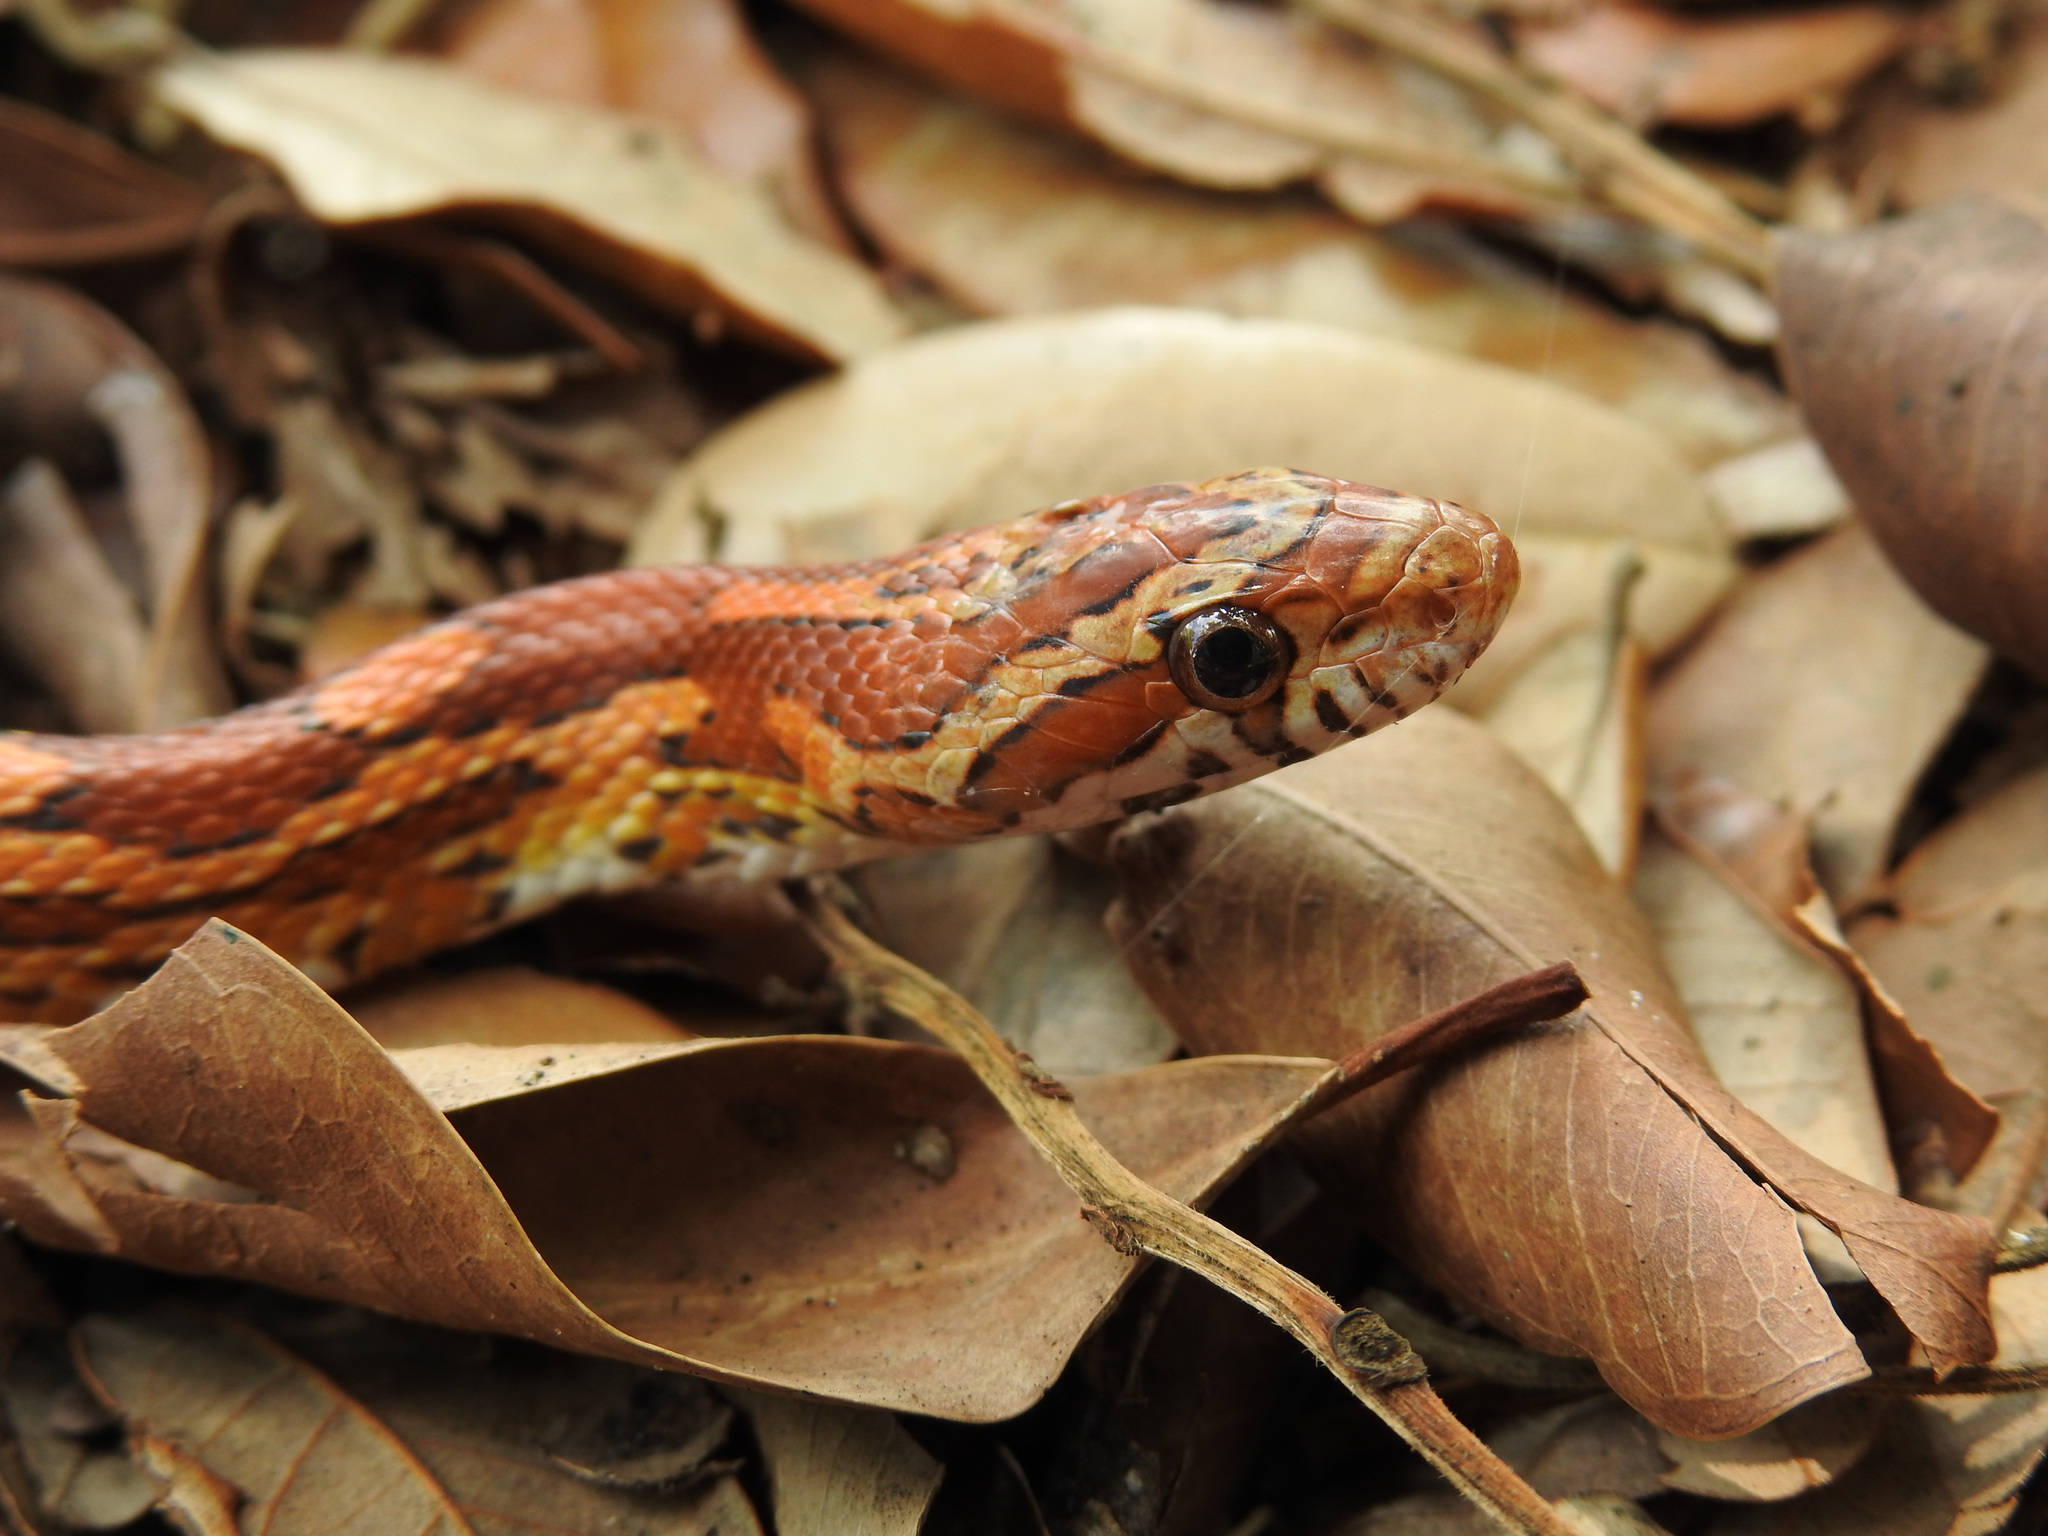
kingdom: Animalia
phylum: Chordata
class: Squamata
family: Colubridae
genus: Pantherophis
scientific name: Pantherophis guttatus
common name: Red cornsnake
